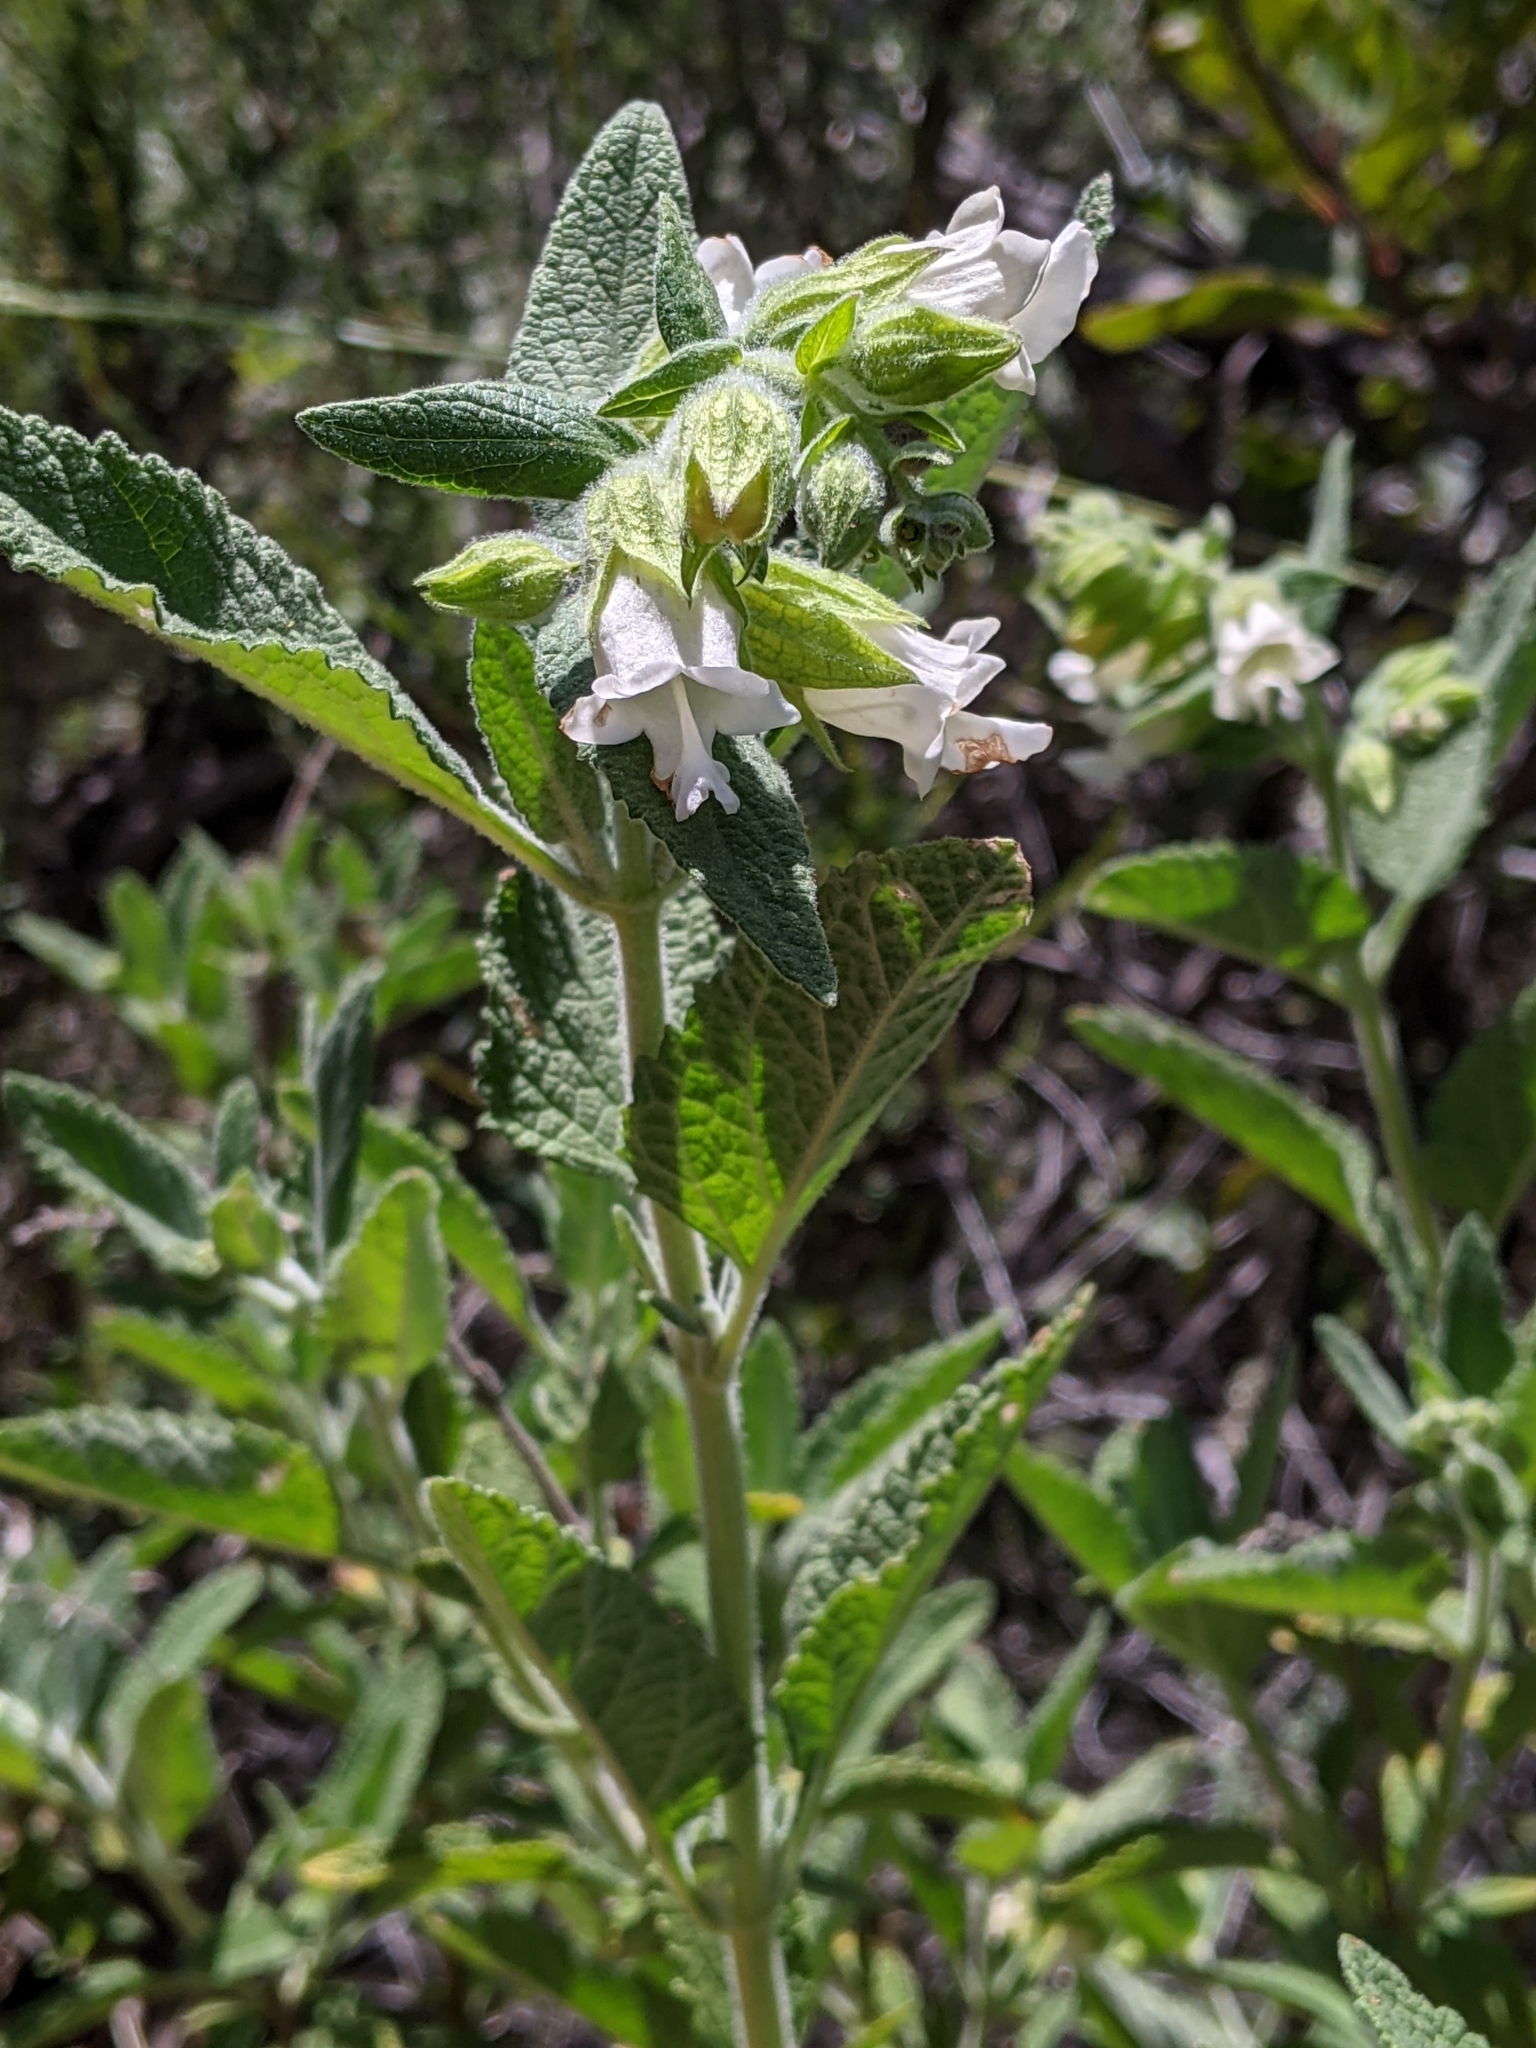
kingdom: Plantae
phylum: Tracheophyta
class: Magnoliopsida
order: Lamiales
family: Lamiaceae
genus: Lepechinia
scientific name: Lepechinia calycina
